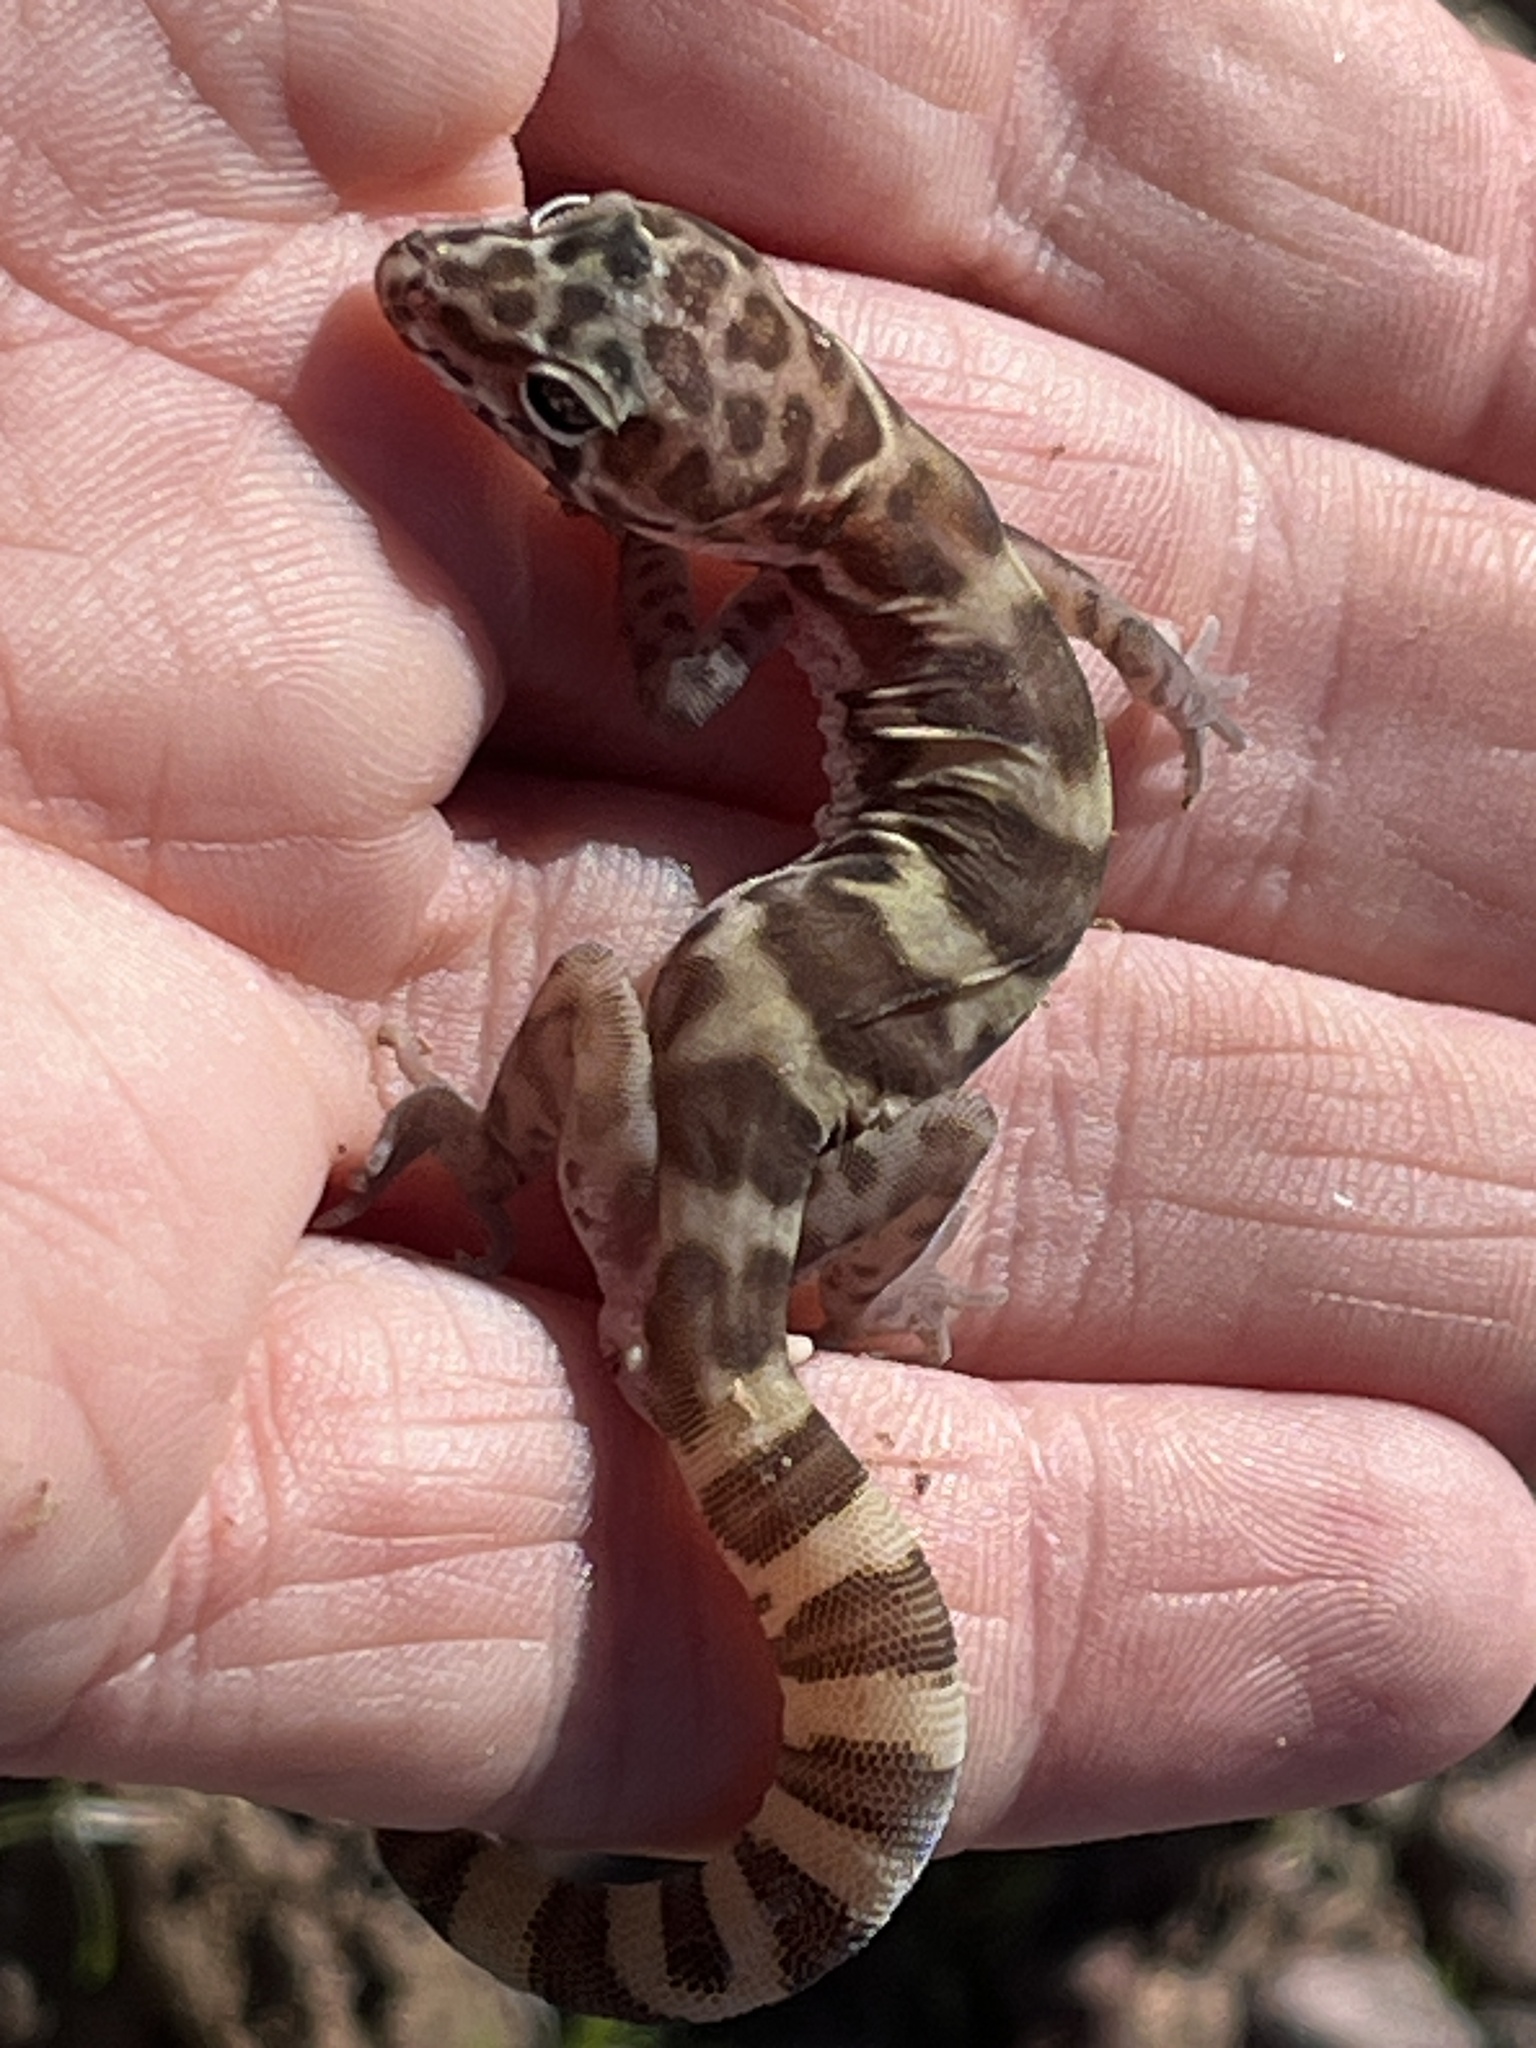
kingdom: Animalia
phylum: Chordata
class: Squamata
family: Eublepharidae
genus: Coleonyx
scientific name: Coleonyx variegatus
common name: Western banded gecko
